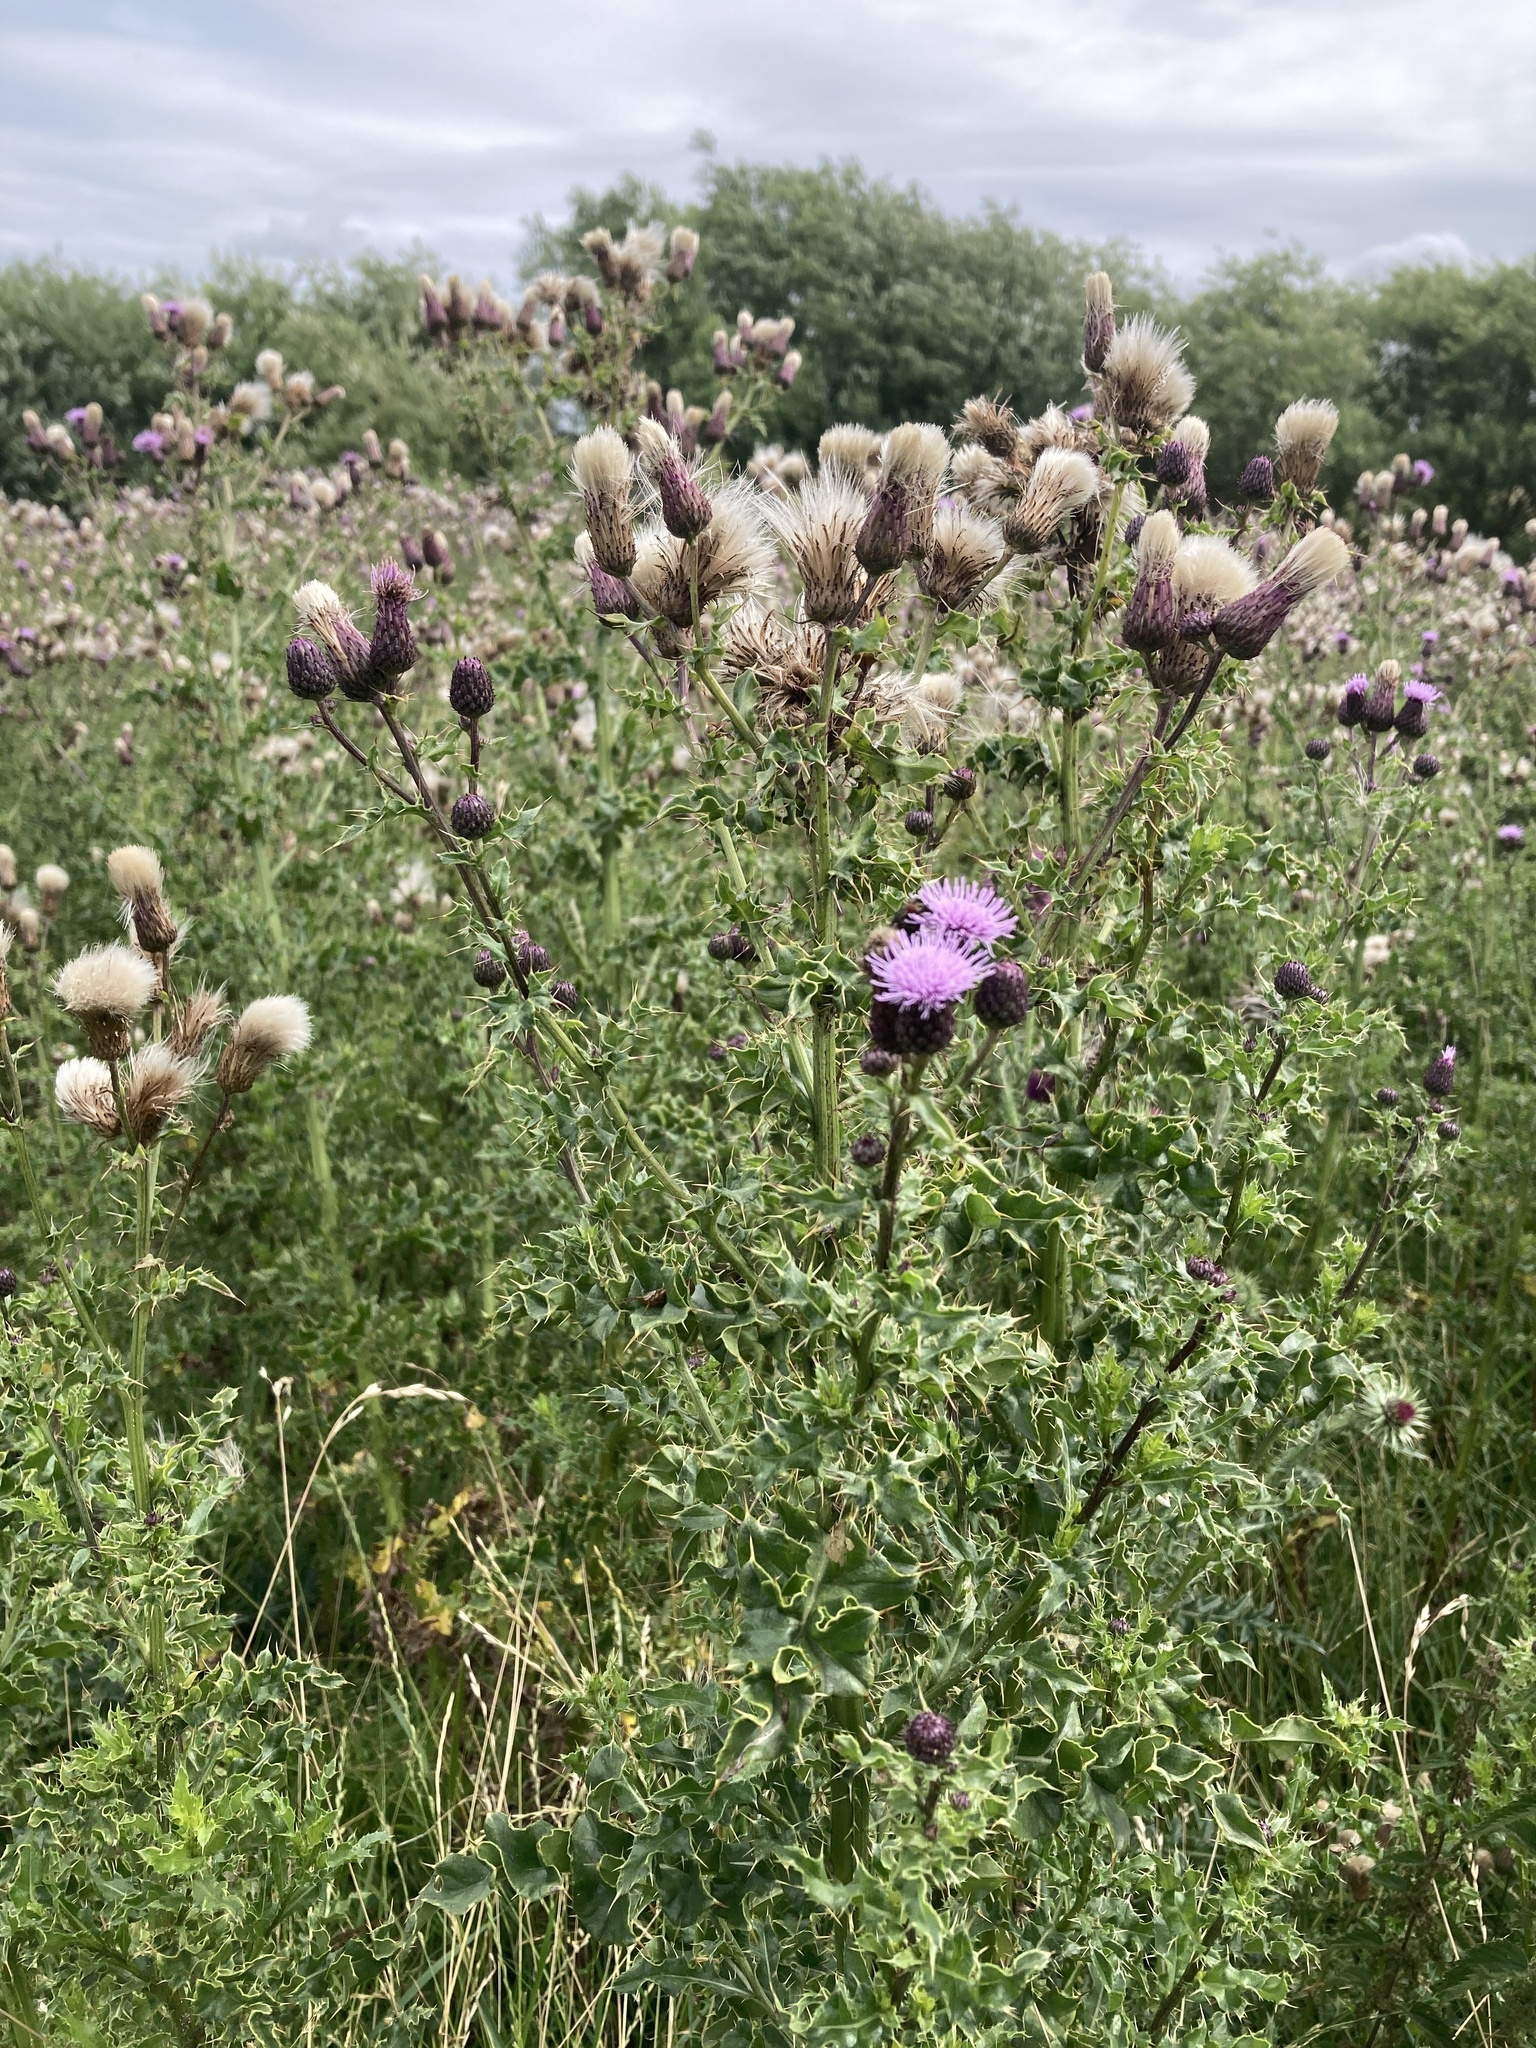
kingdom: Plantae
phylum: Tracheophyta
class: Magnoliopsida
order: Asterales
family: Asteraceae
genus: Cirsium
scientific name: Cirsium arvense
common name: Creeping thistle
